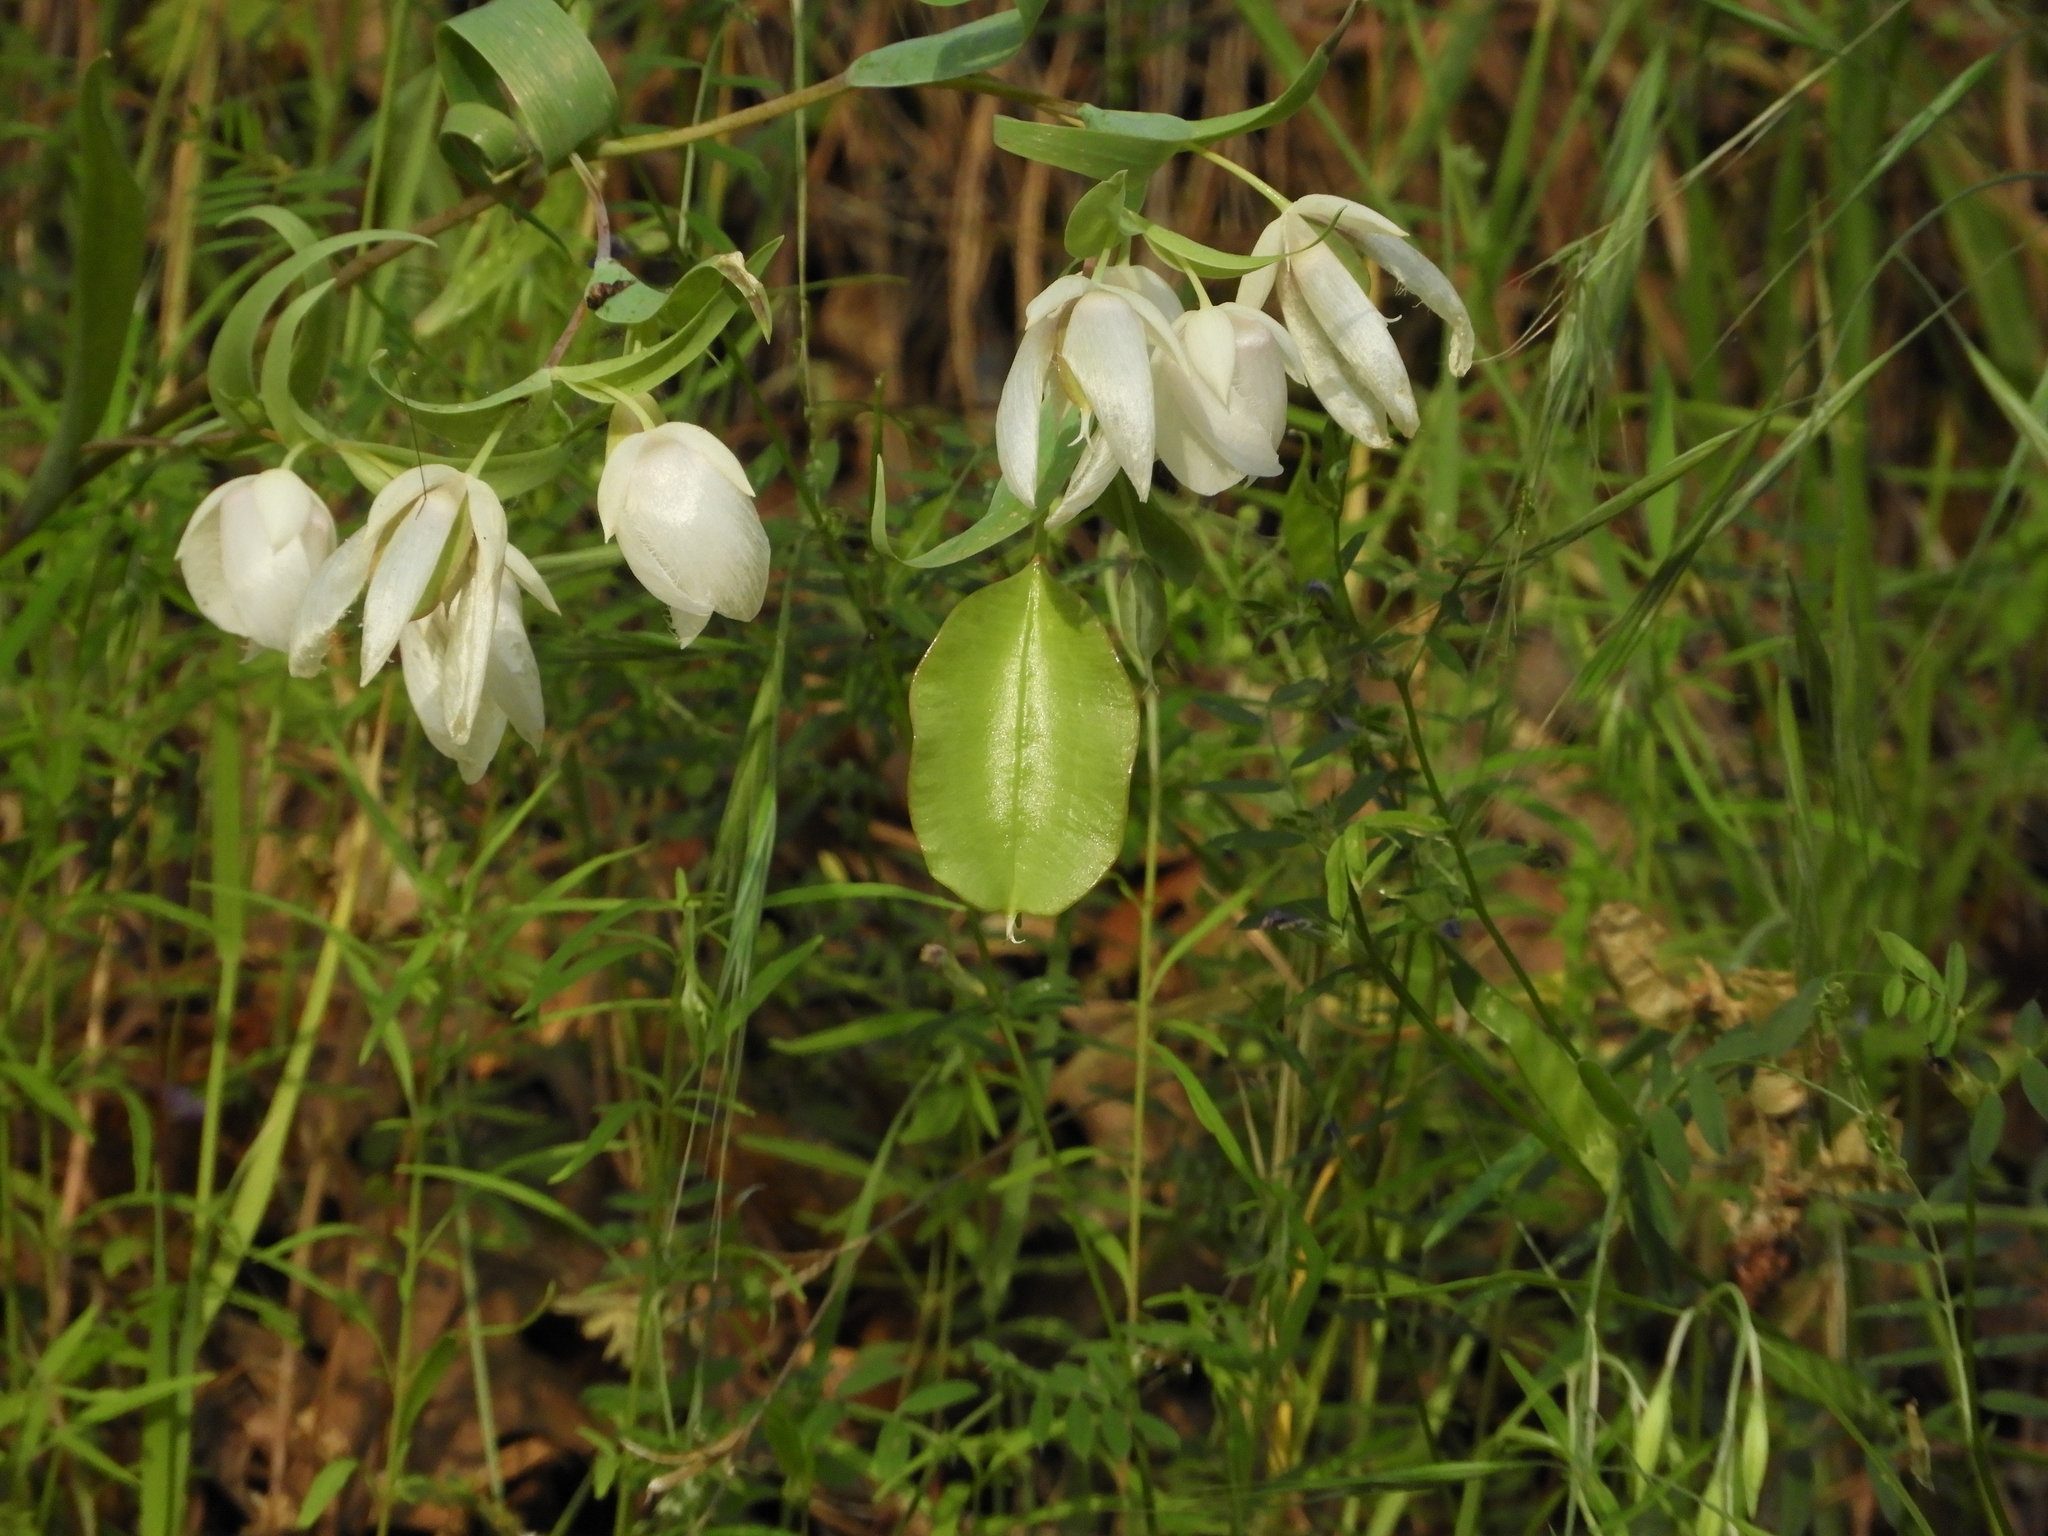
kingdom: Plantae
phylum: Tracheophyta
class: Liliopsida
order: Liliales
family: Liliaceae
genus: Calochortus
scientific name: Calochortus albus
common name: Fairy-lantern
